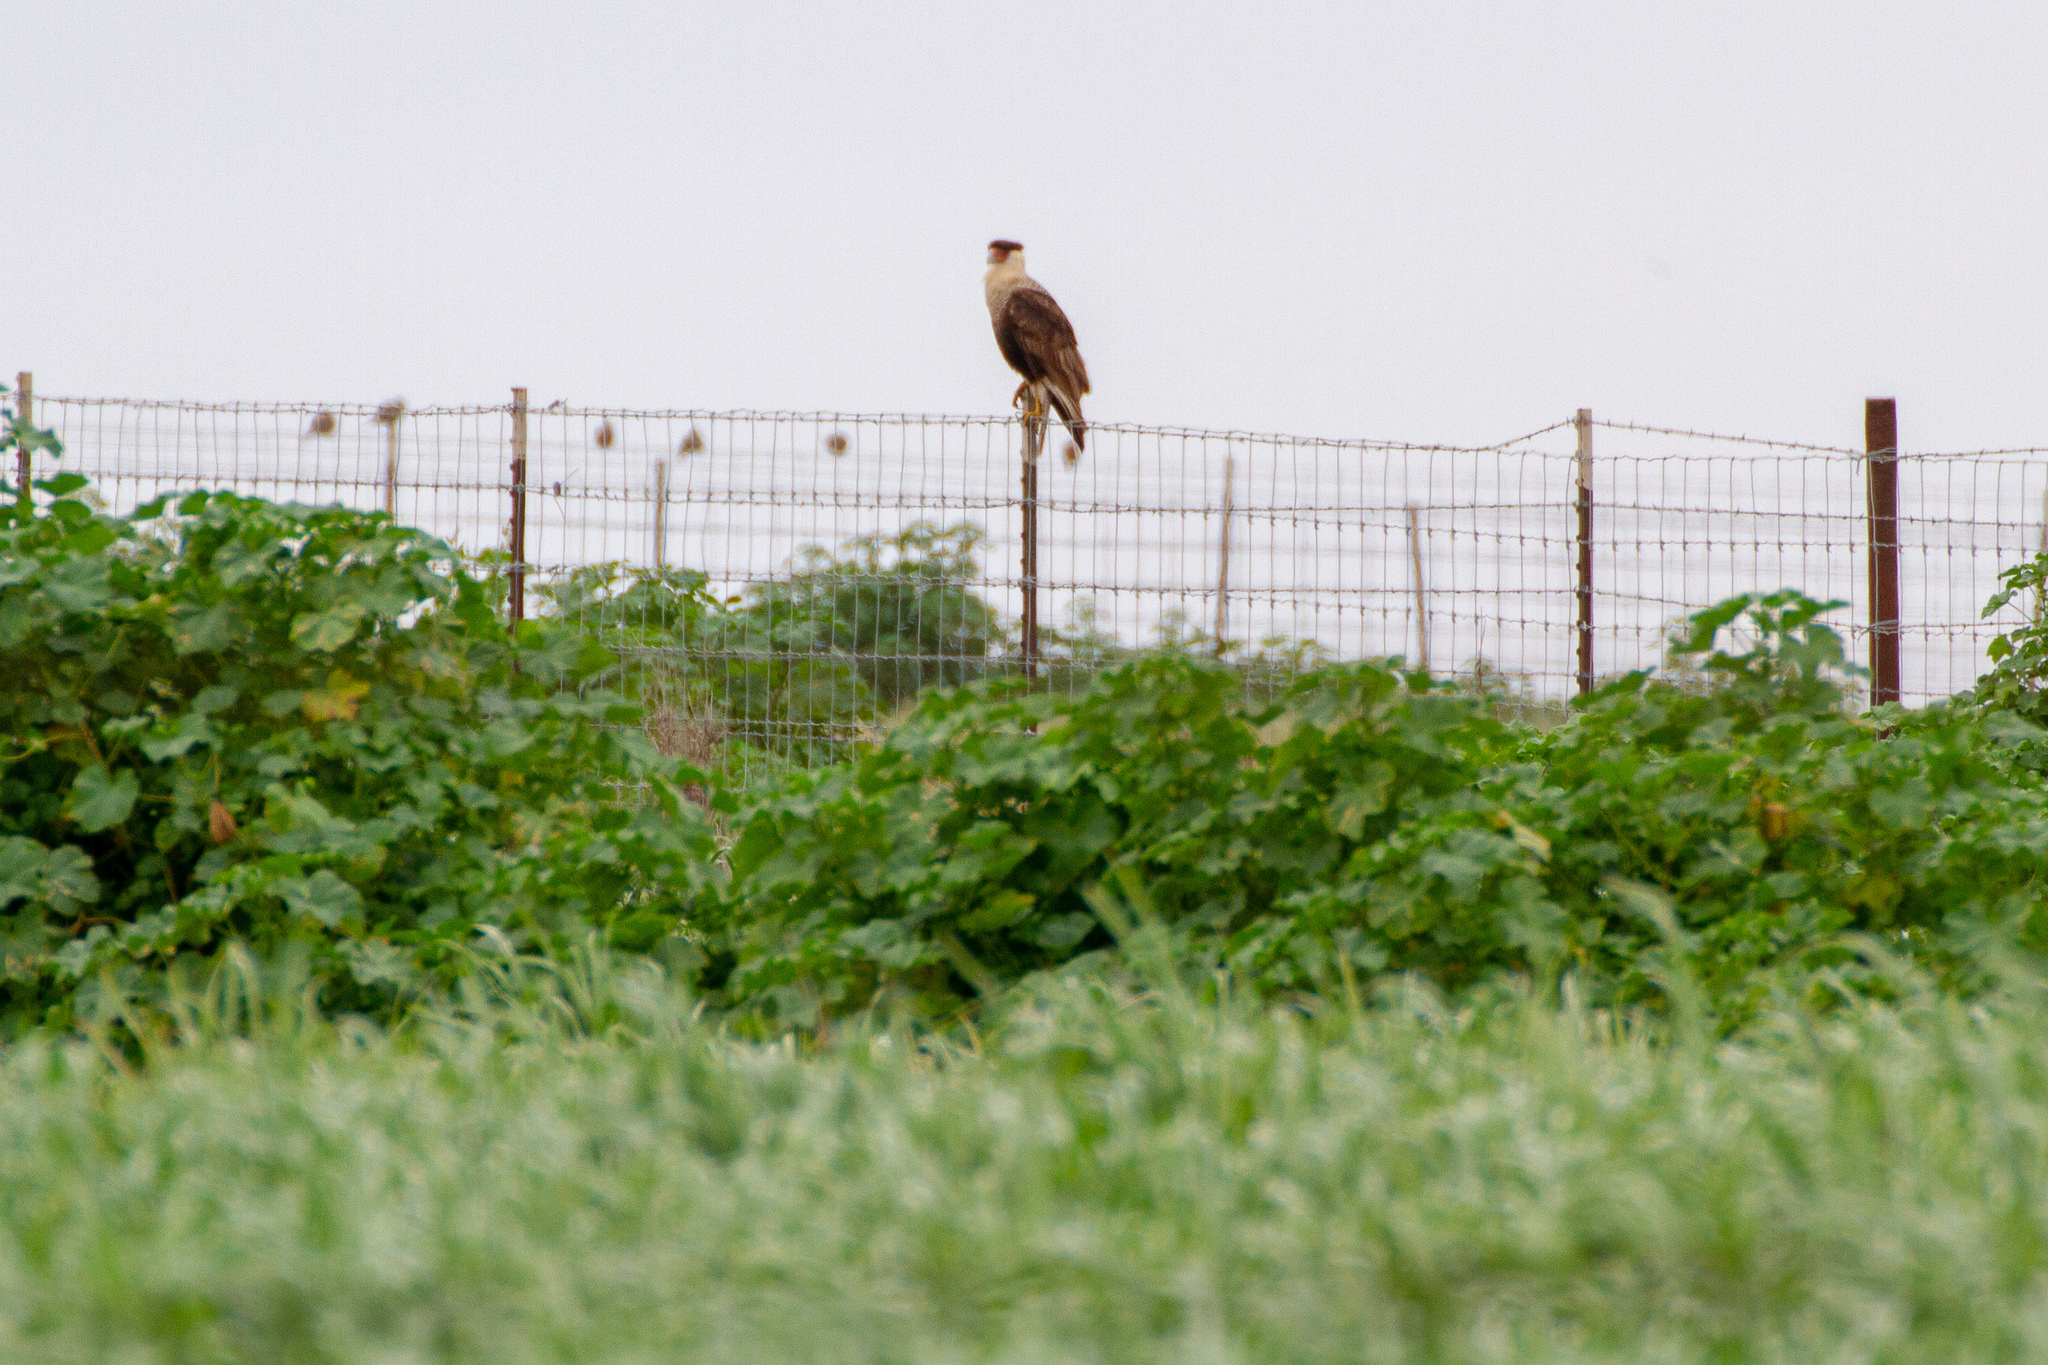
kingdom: Animalia
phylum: Chordata
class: Aves
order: Falconiformes
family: Falconidae
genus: Caracara
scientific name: Caracara plancus
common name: Southern caracara
